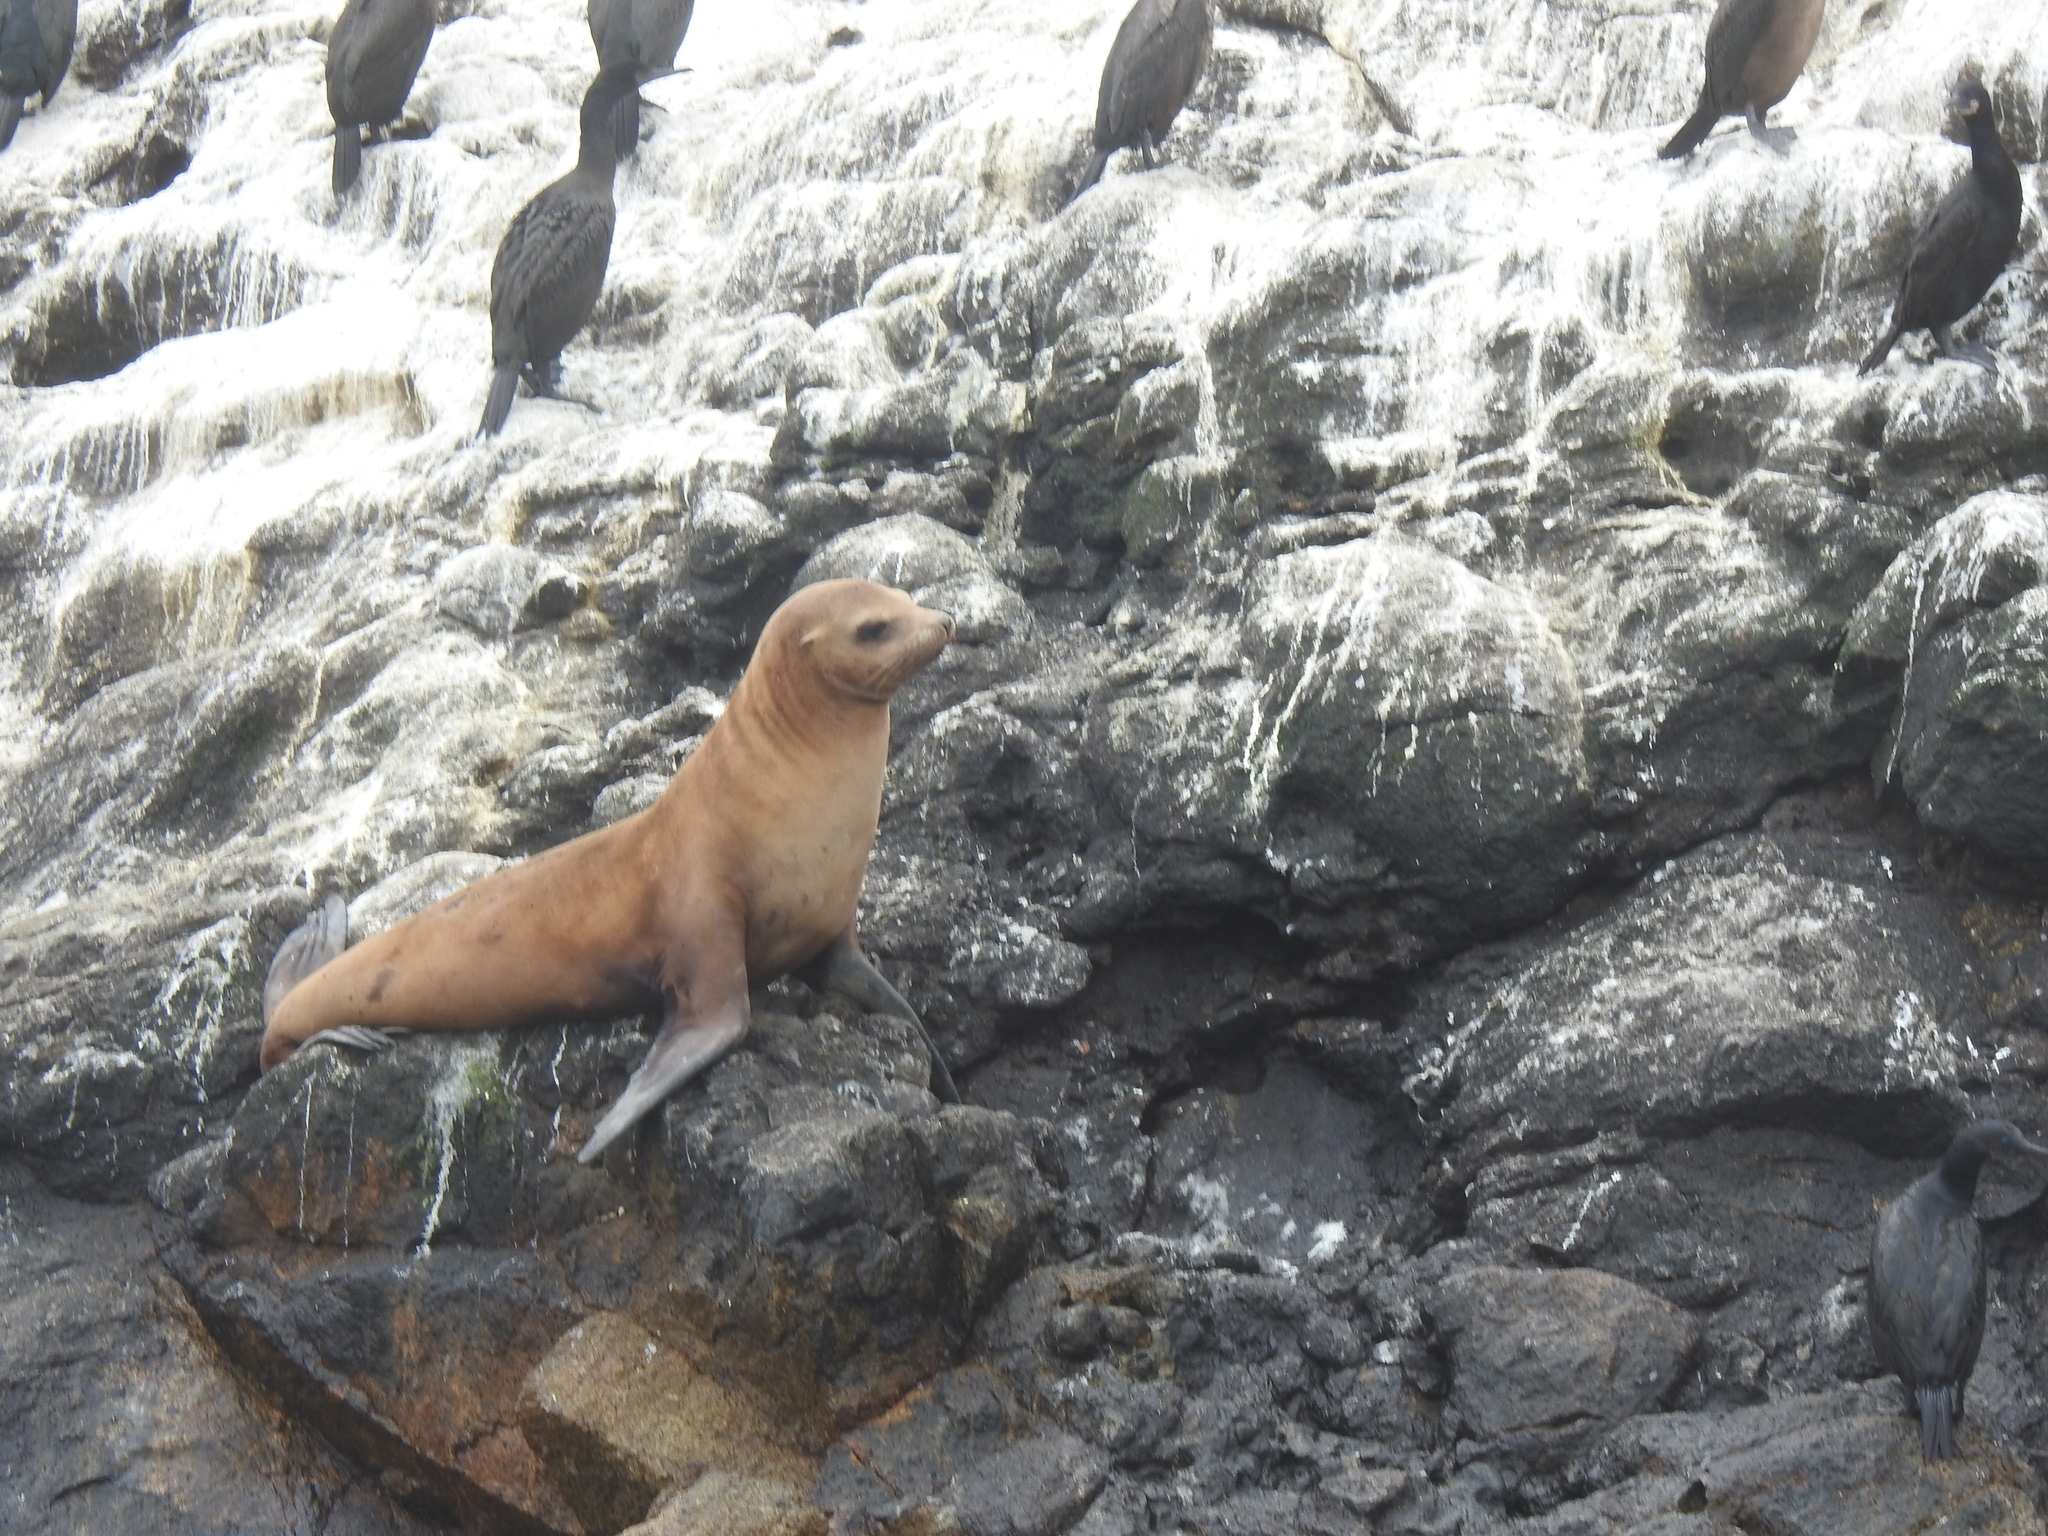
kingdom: Animalia
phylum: Chordata
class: Mammalia
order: Carnivora
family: Otariidae
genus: Zalophus
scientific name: Zalophus californianus
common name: California sea lion
